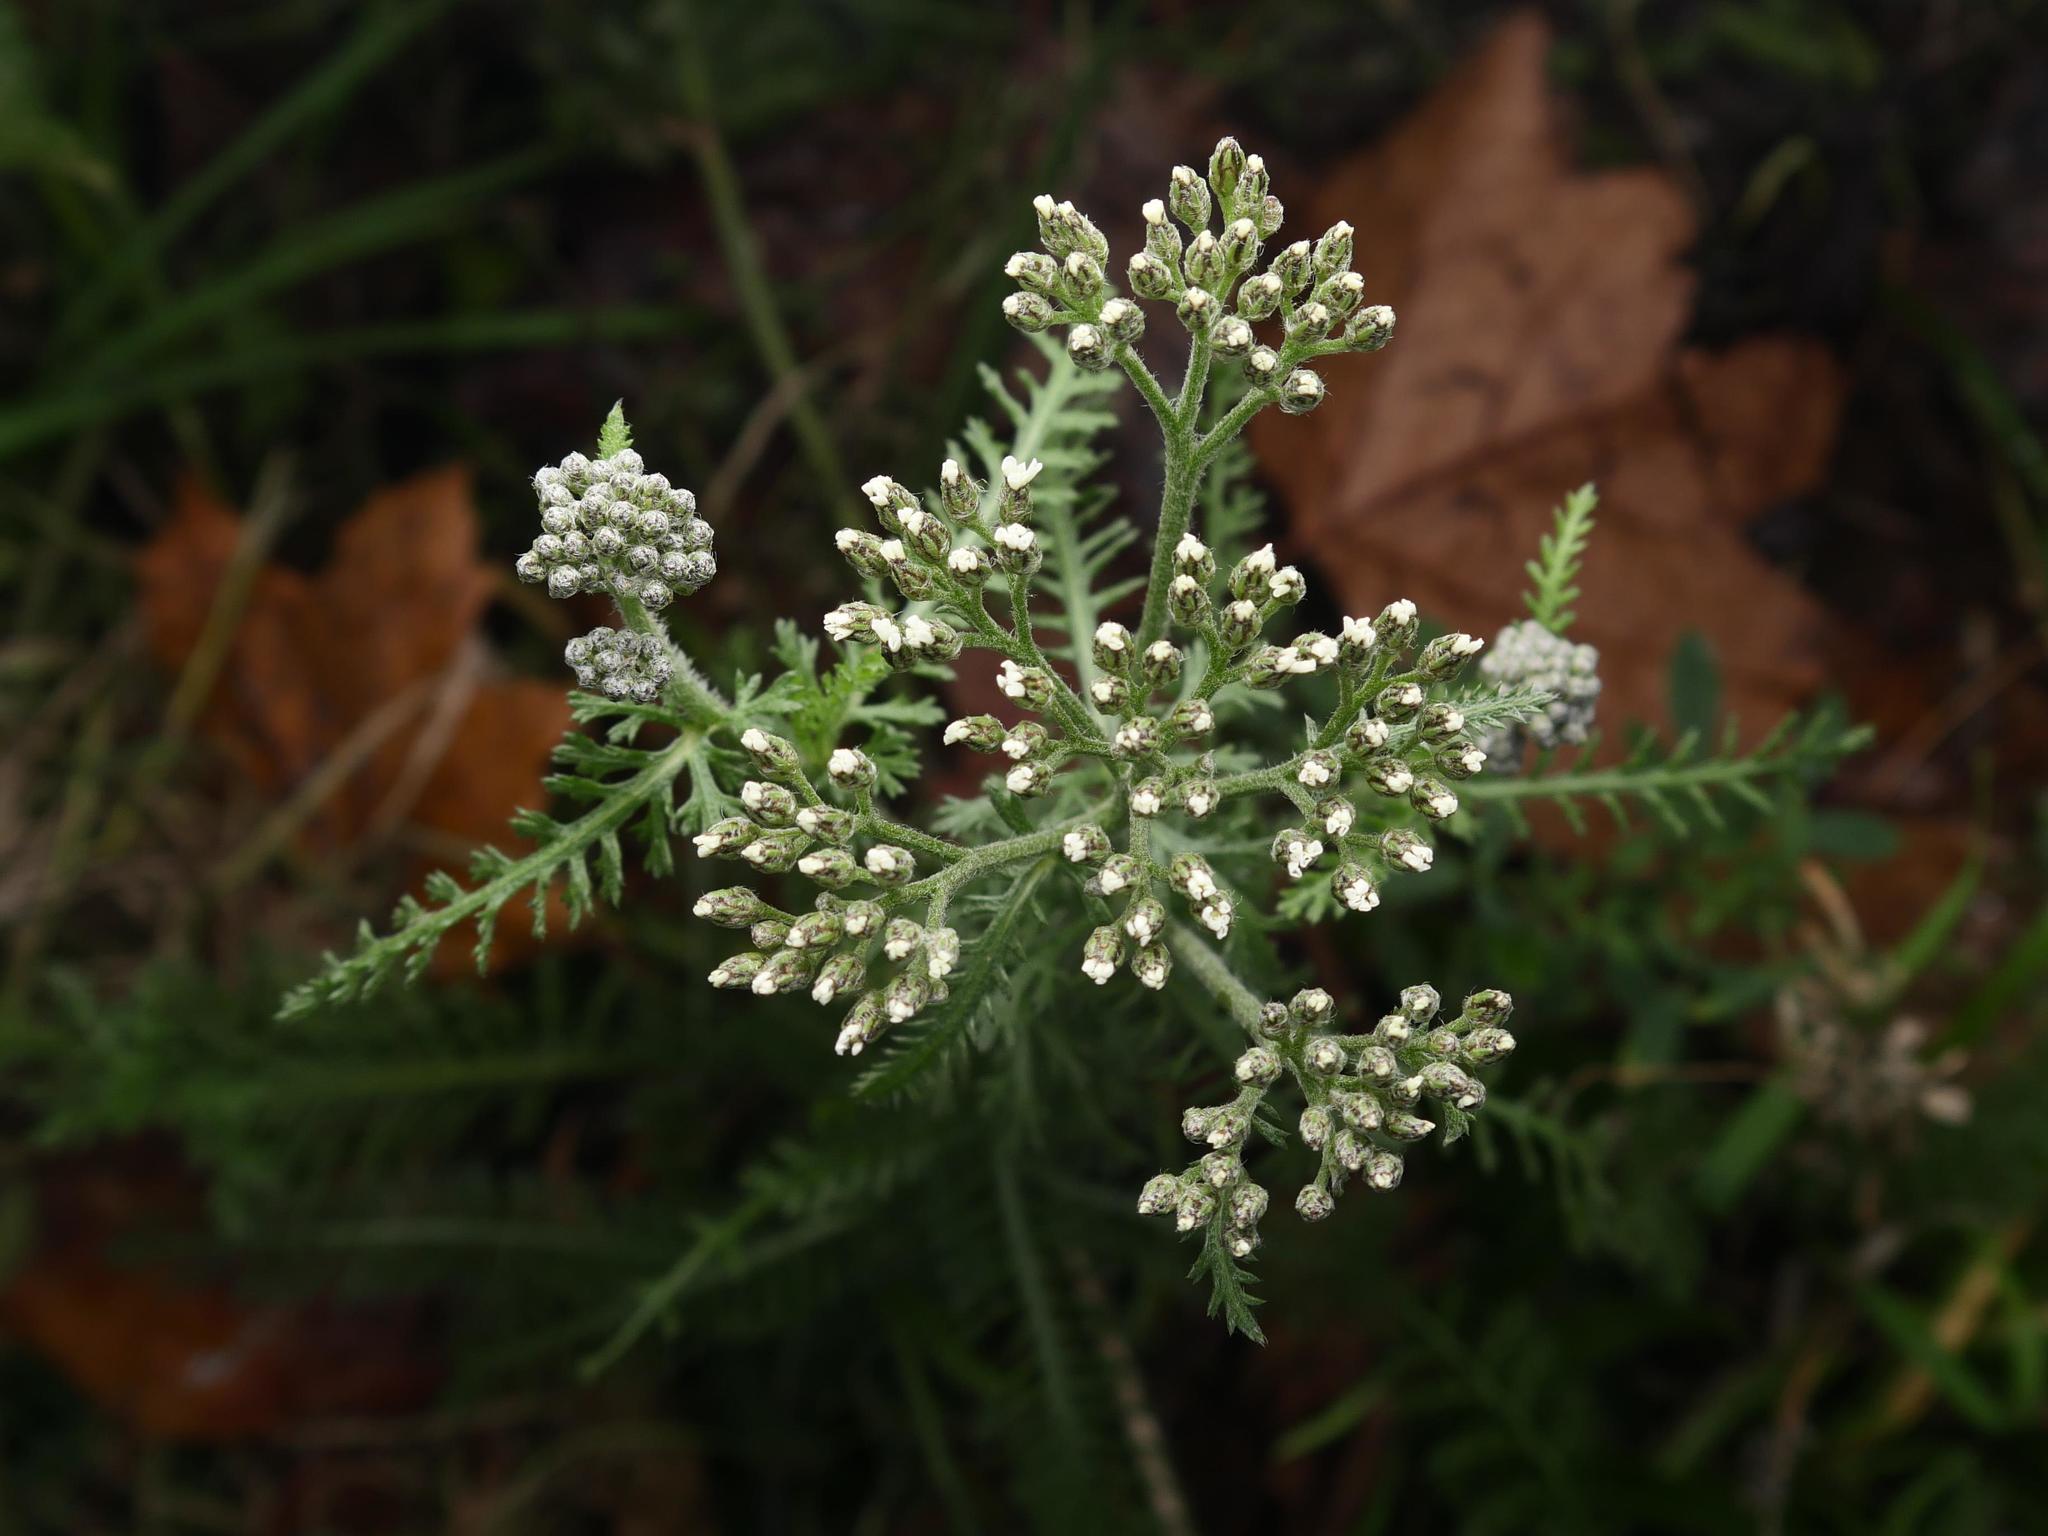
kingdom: Plantae
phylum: Tracheophyta
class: Magnoliopsida
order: Asterales
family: Asteraceae
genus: Achillea
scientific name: Achillea millefolium
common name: Yarrow
